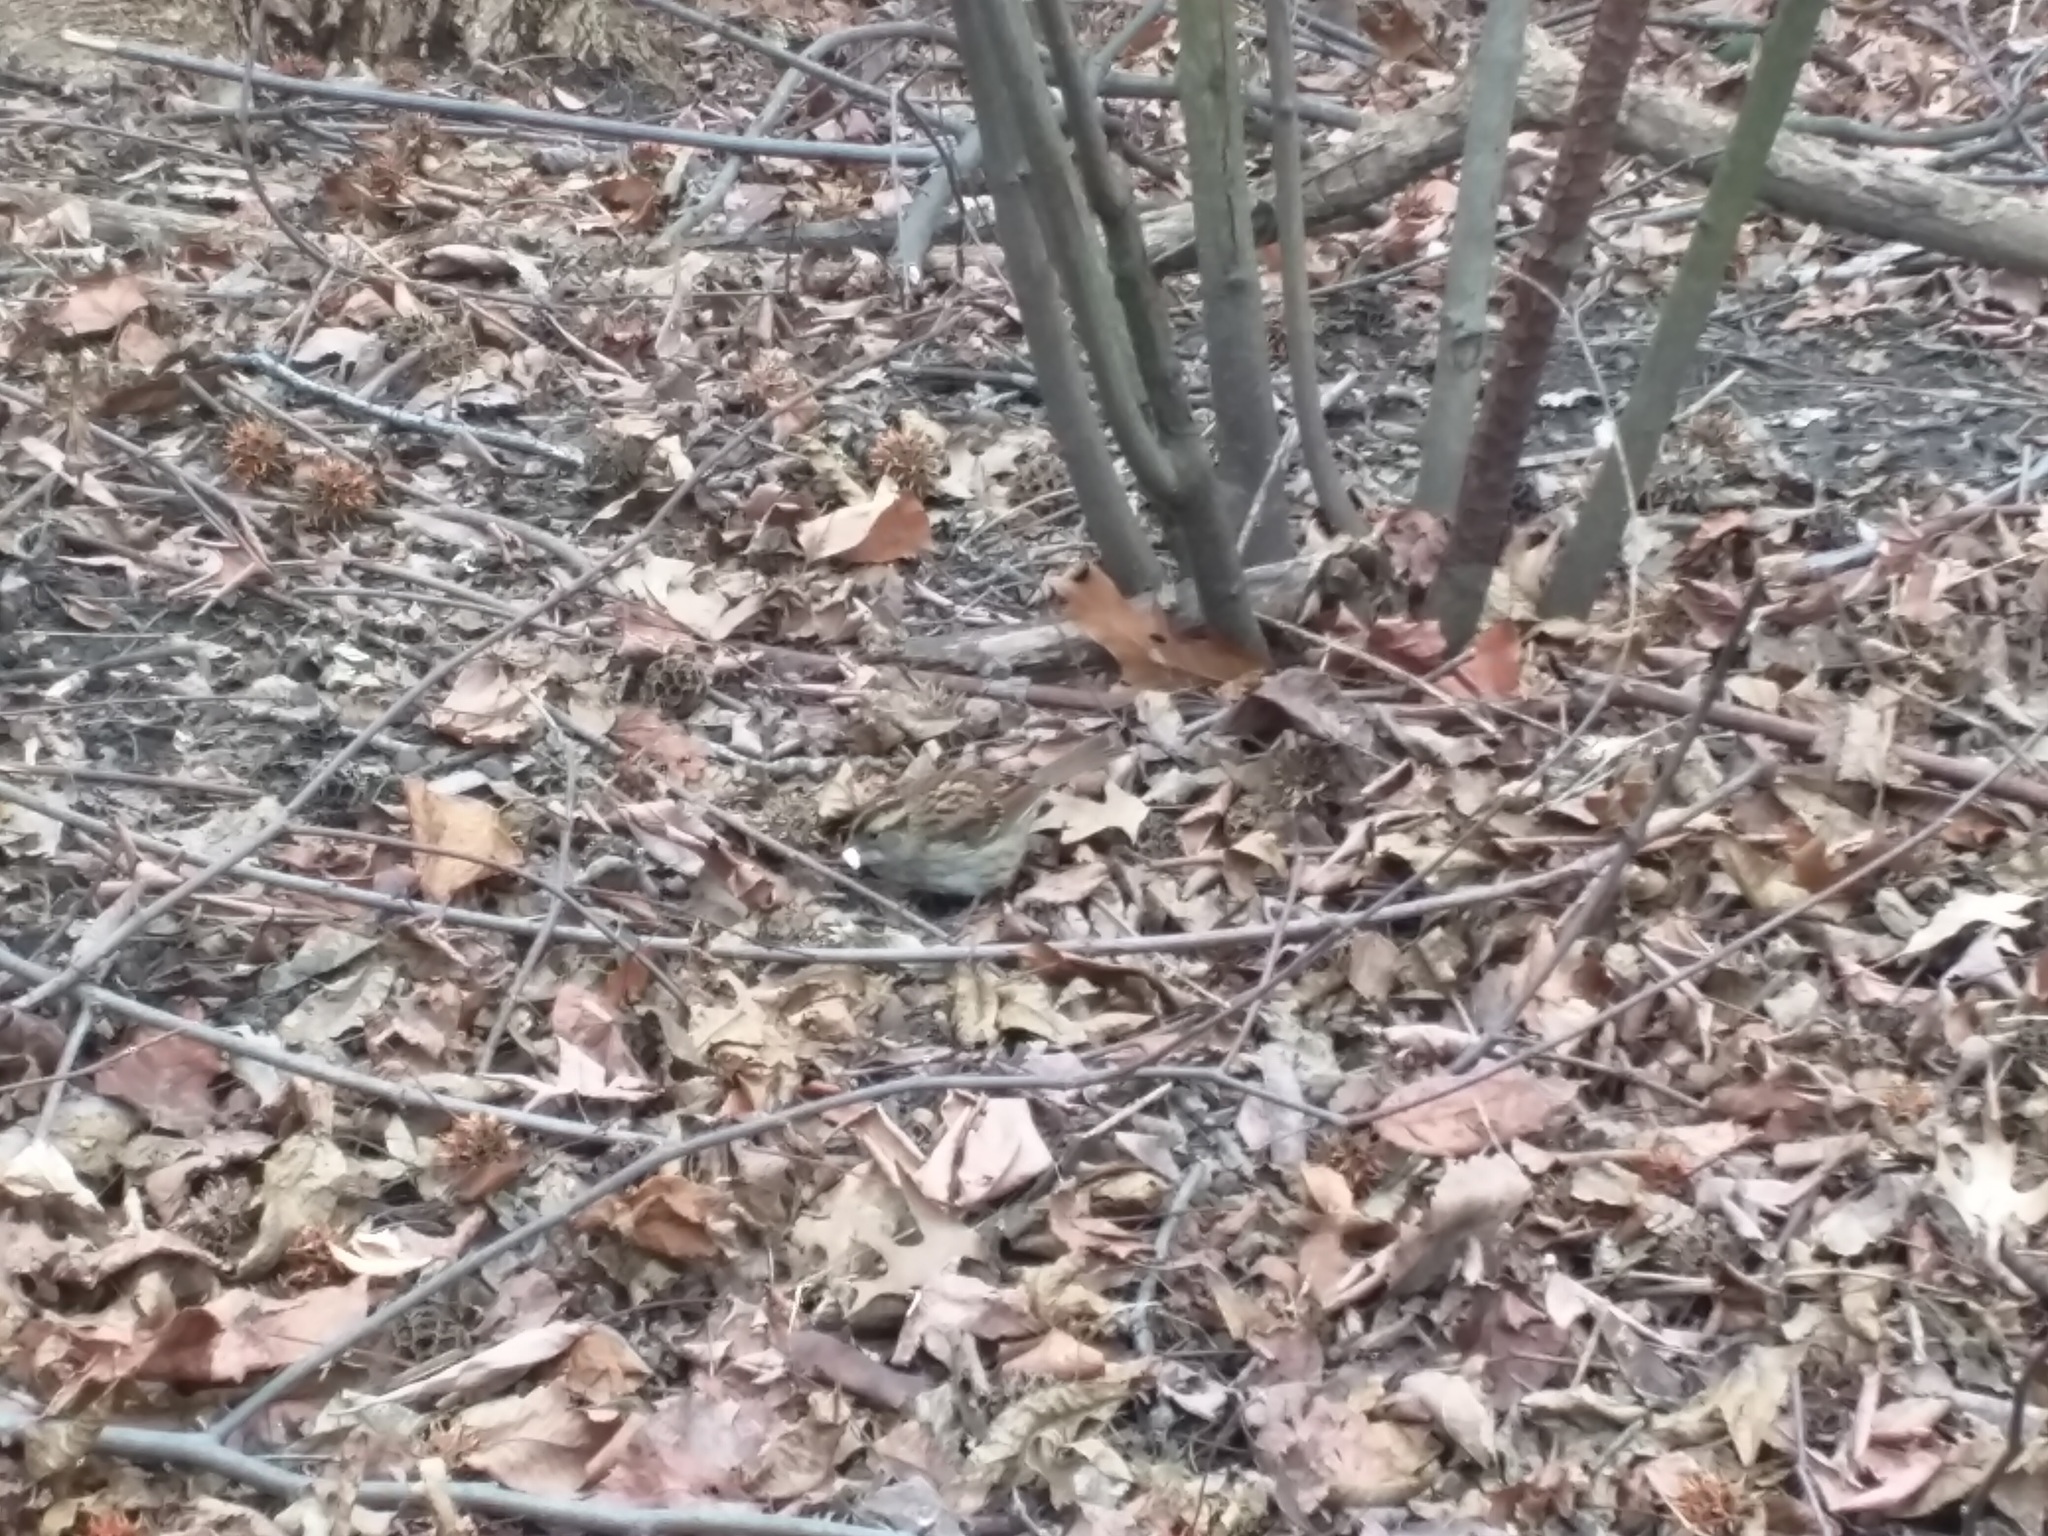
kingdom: Animalia
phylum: Chordata
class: Aves
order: Passeriformes
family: Passerellidae
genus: Zonotrichia
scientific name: Zonotrichia albicollis
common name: White-throated sparrow
